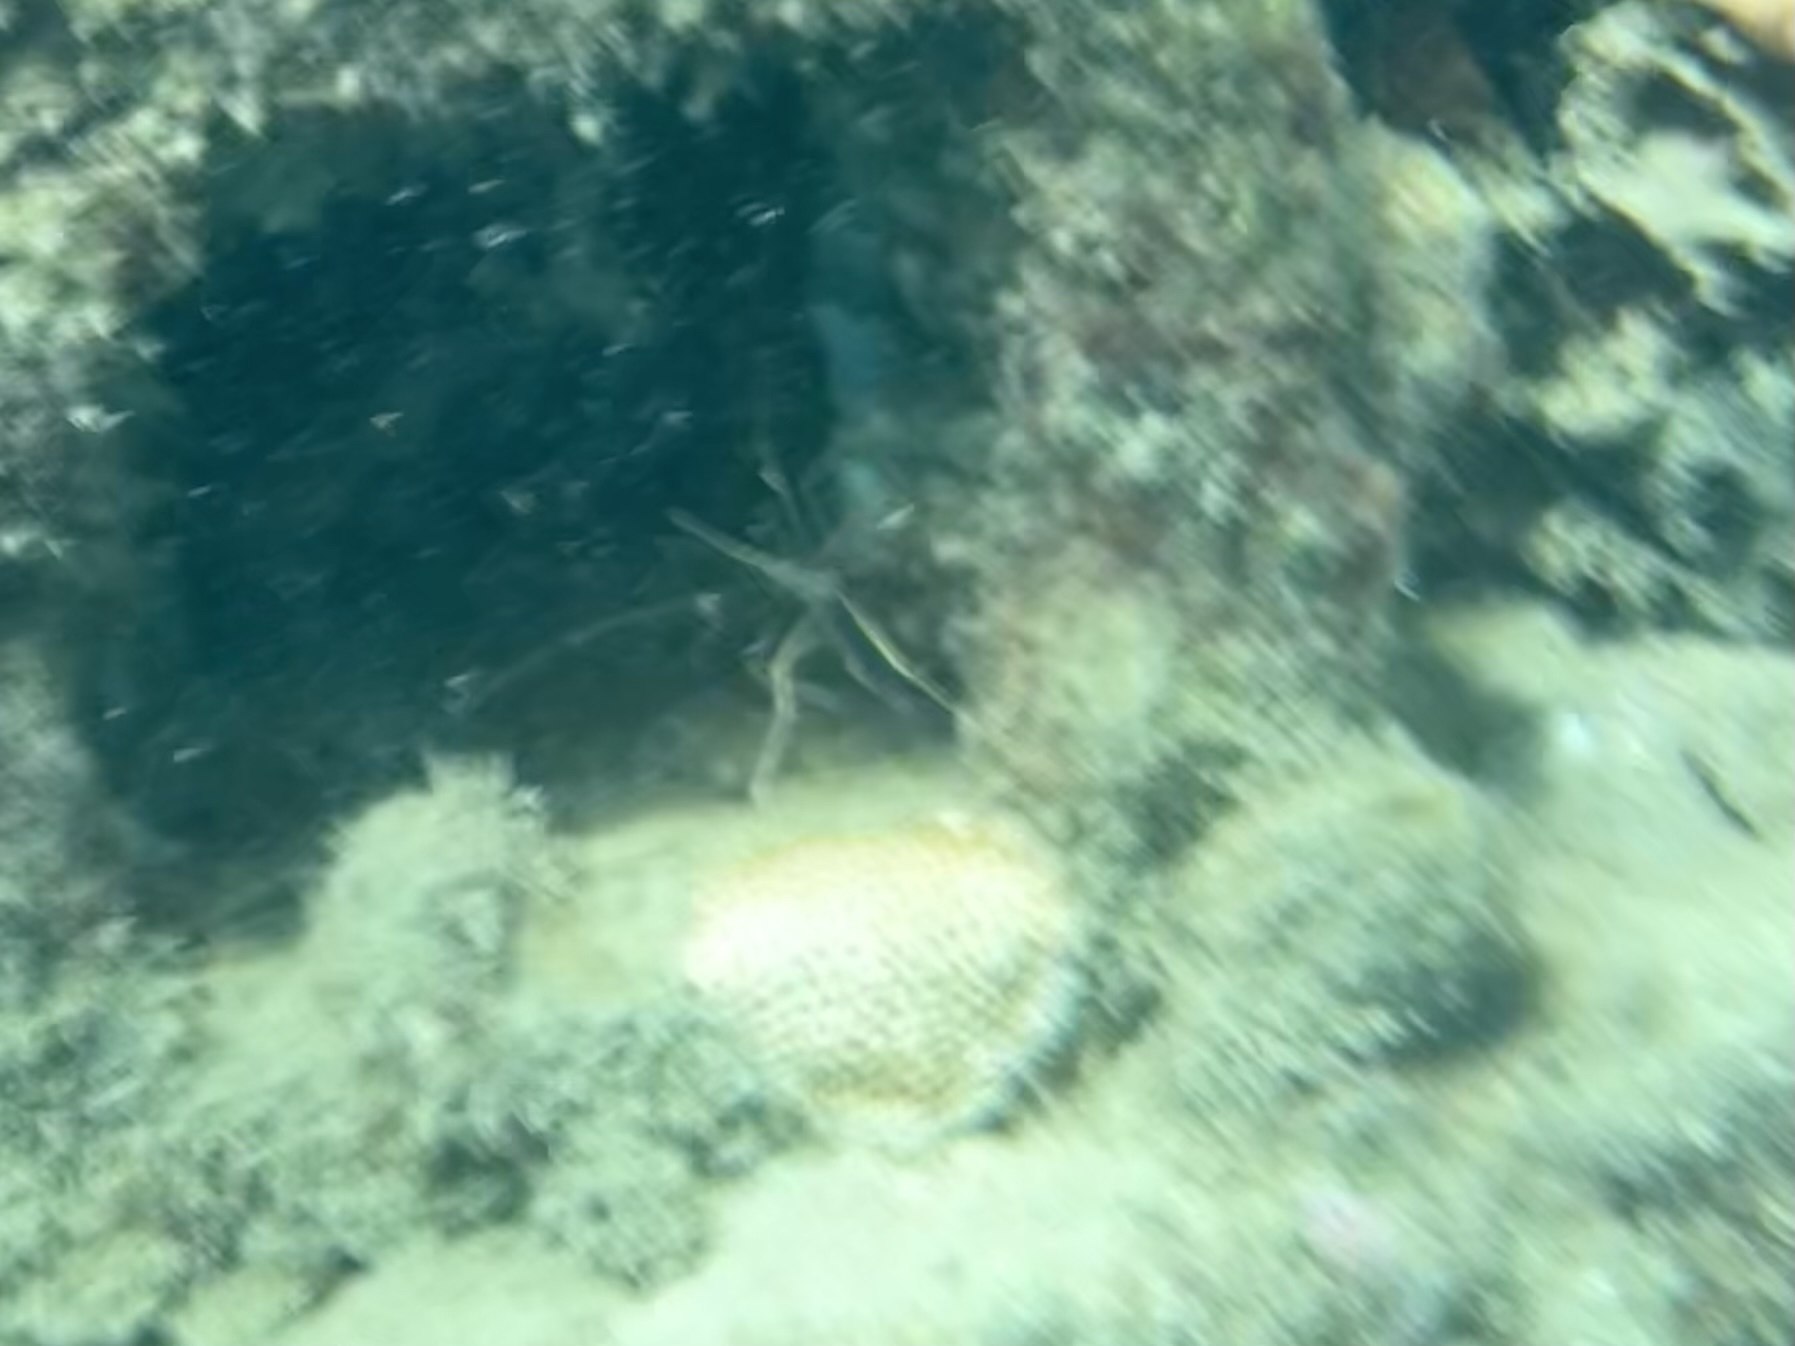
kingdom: Animalia
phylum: Arthropoda
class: Malacostraca
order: Decapoda
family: Inachoididae
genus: Stenorhynchus
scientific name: Stenorhynchus seticornis
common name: Arrow crab
